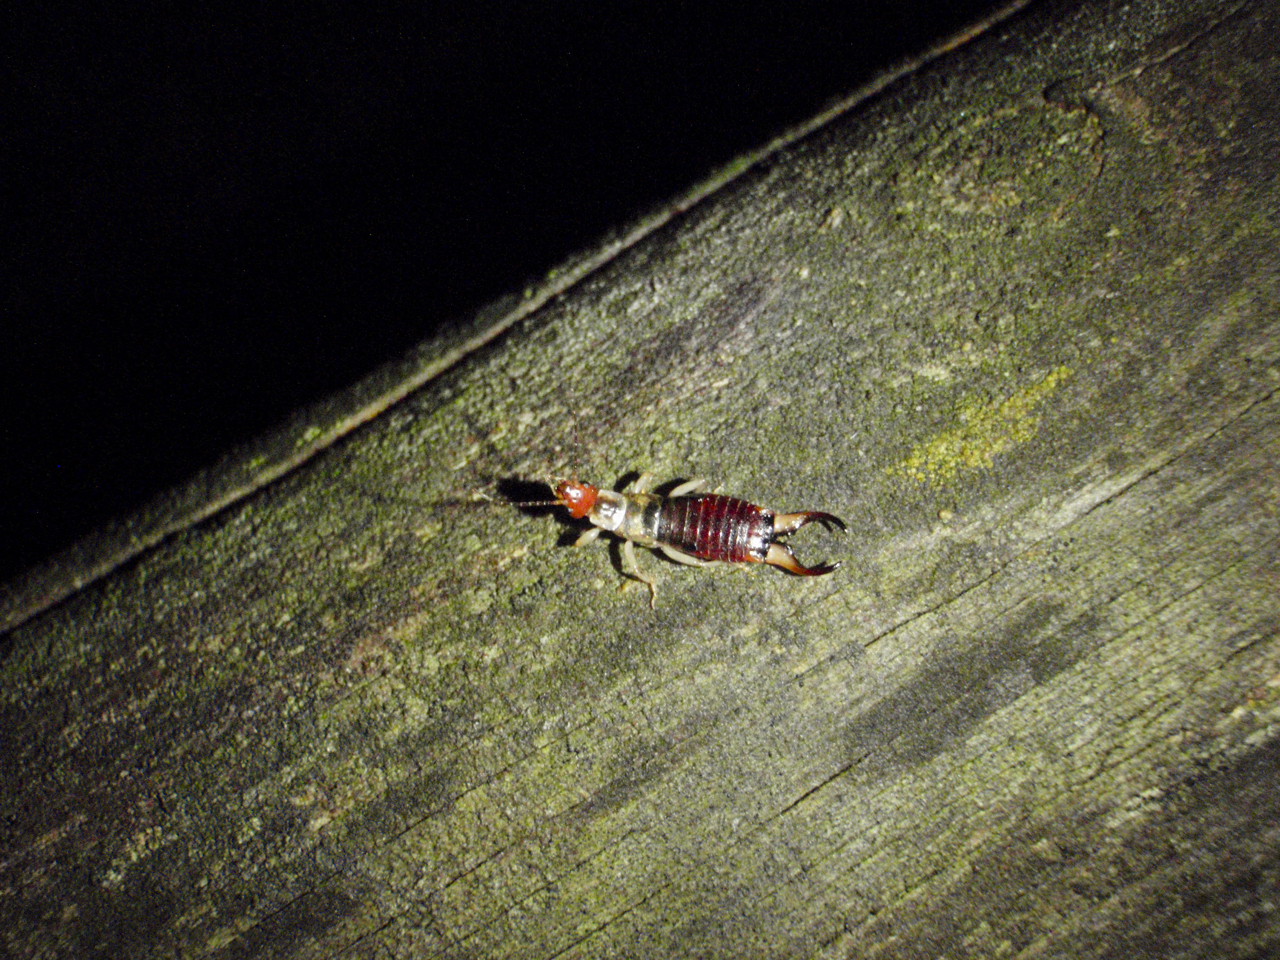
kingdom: Animalia
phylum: Arthropoda
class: Insecta
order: Dermaptera
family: Forficulidae
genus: Forficula
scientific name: Forficula decipiens
